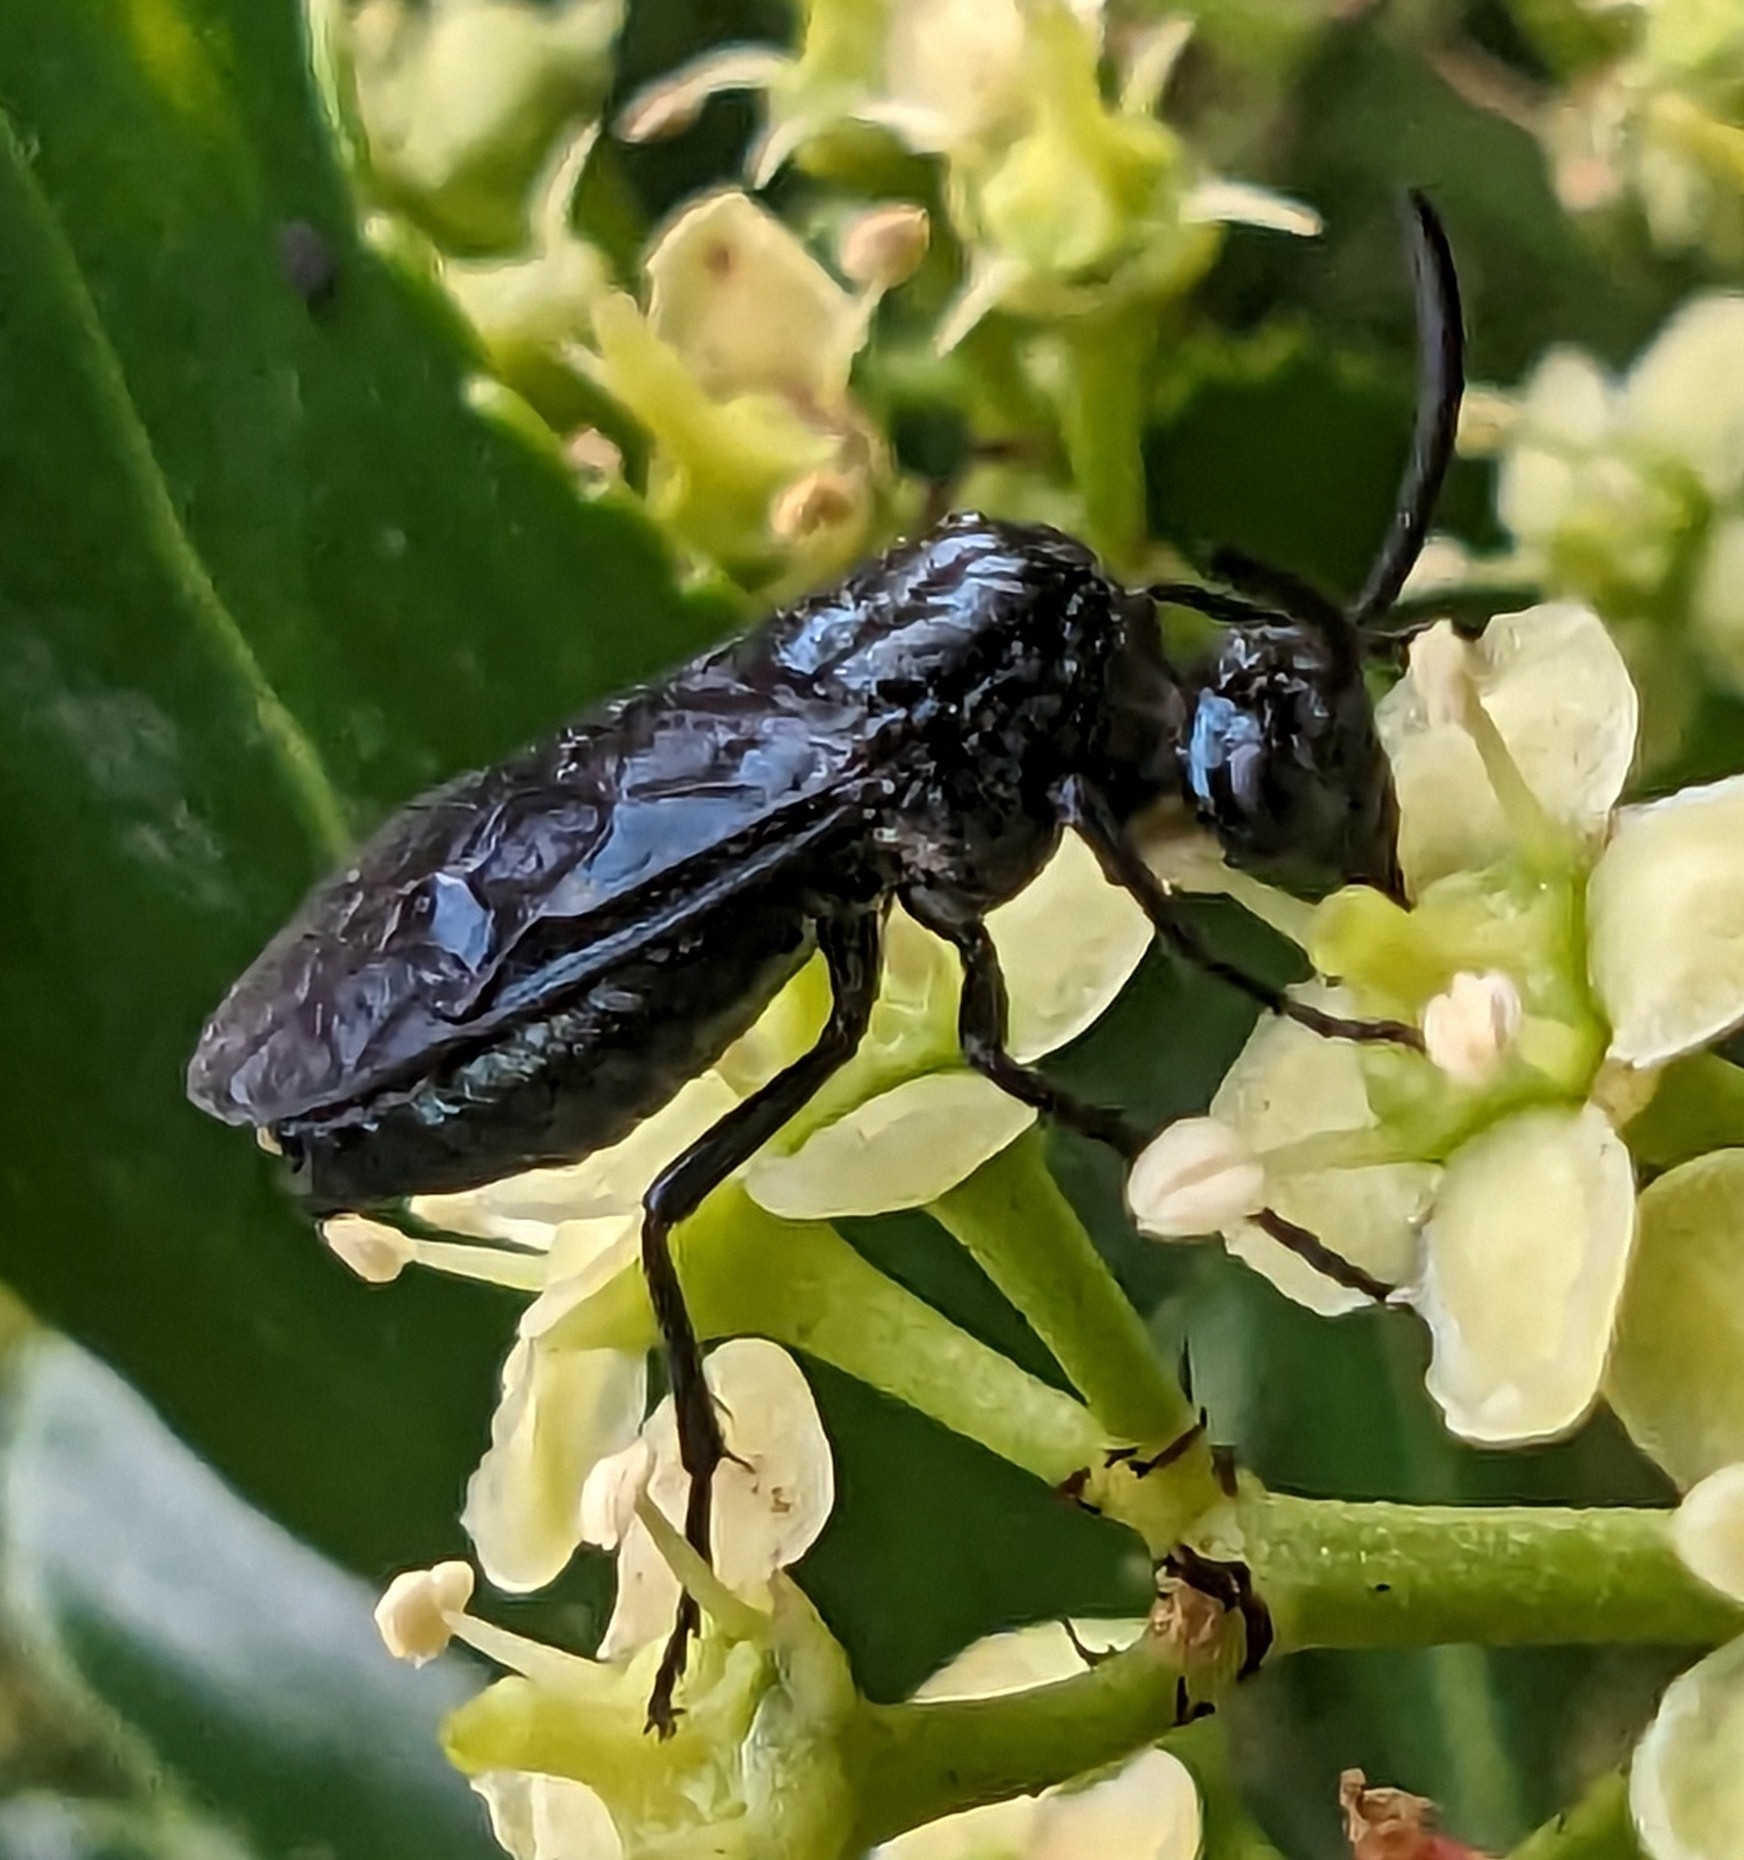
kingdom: Animalia
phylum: Arthropoda
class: Insecta
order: Hymenoptera
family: Argidae
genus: Arge
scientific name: Arge berberidis
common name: Berberis sawfly
